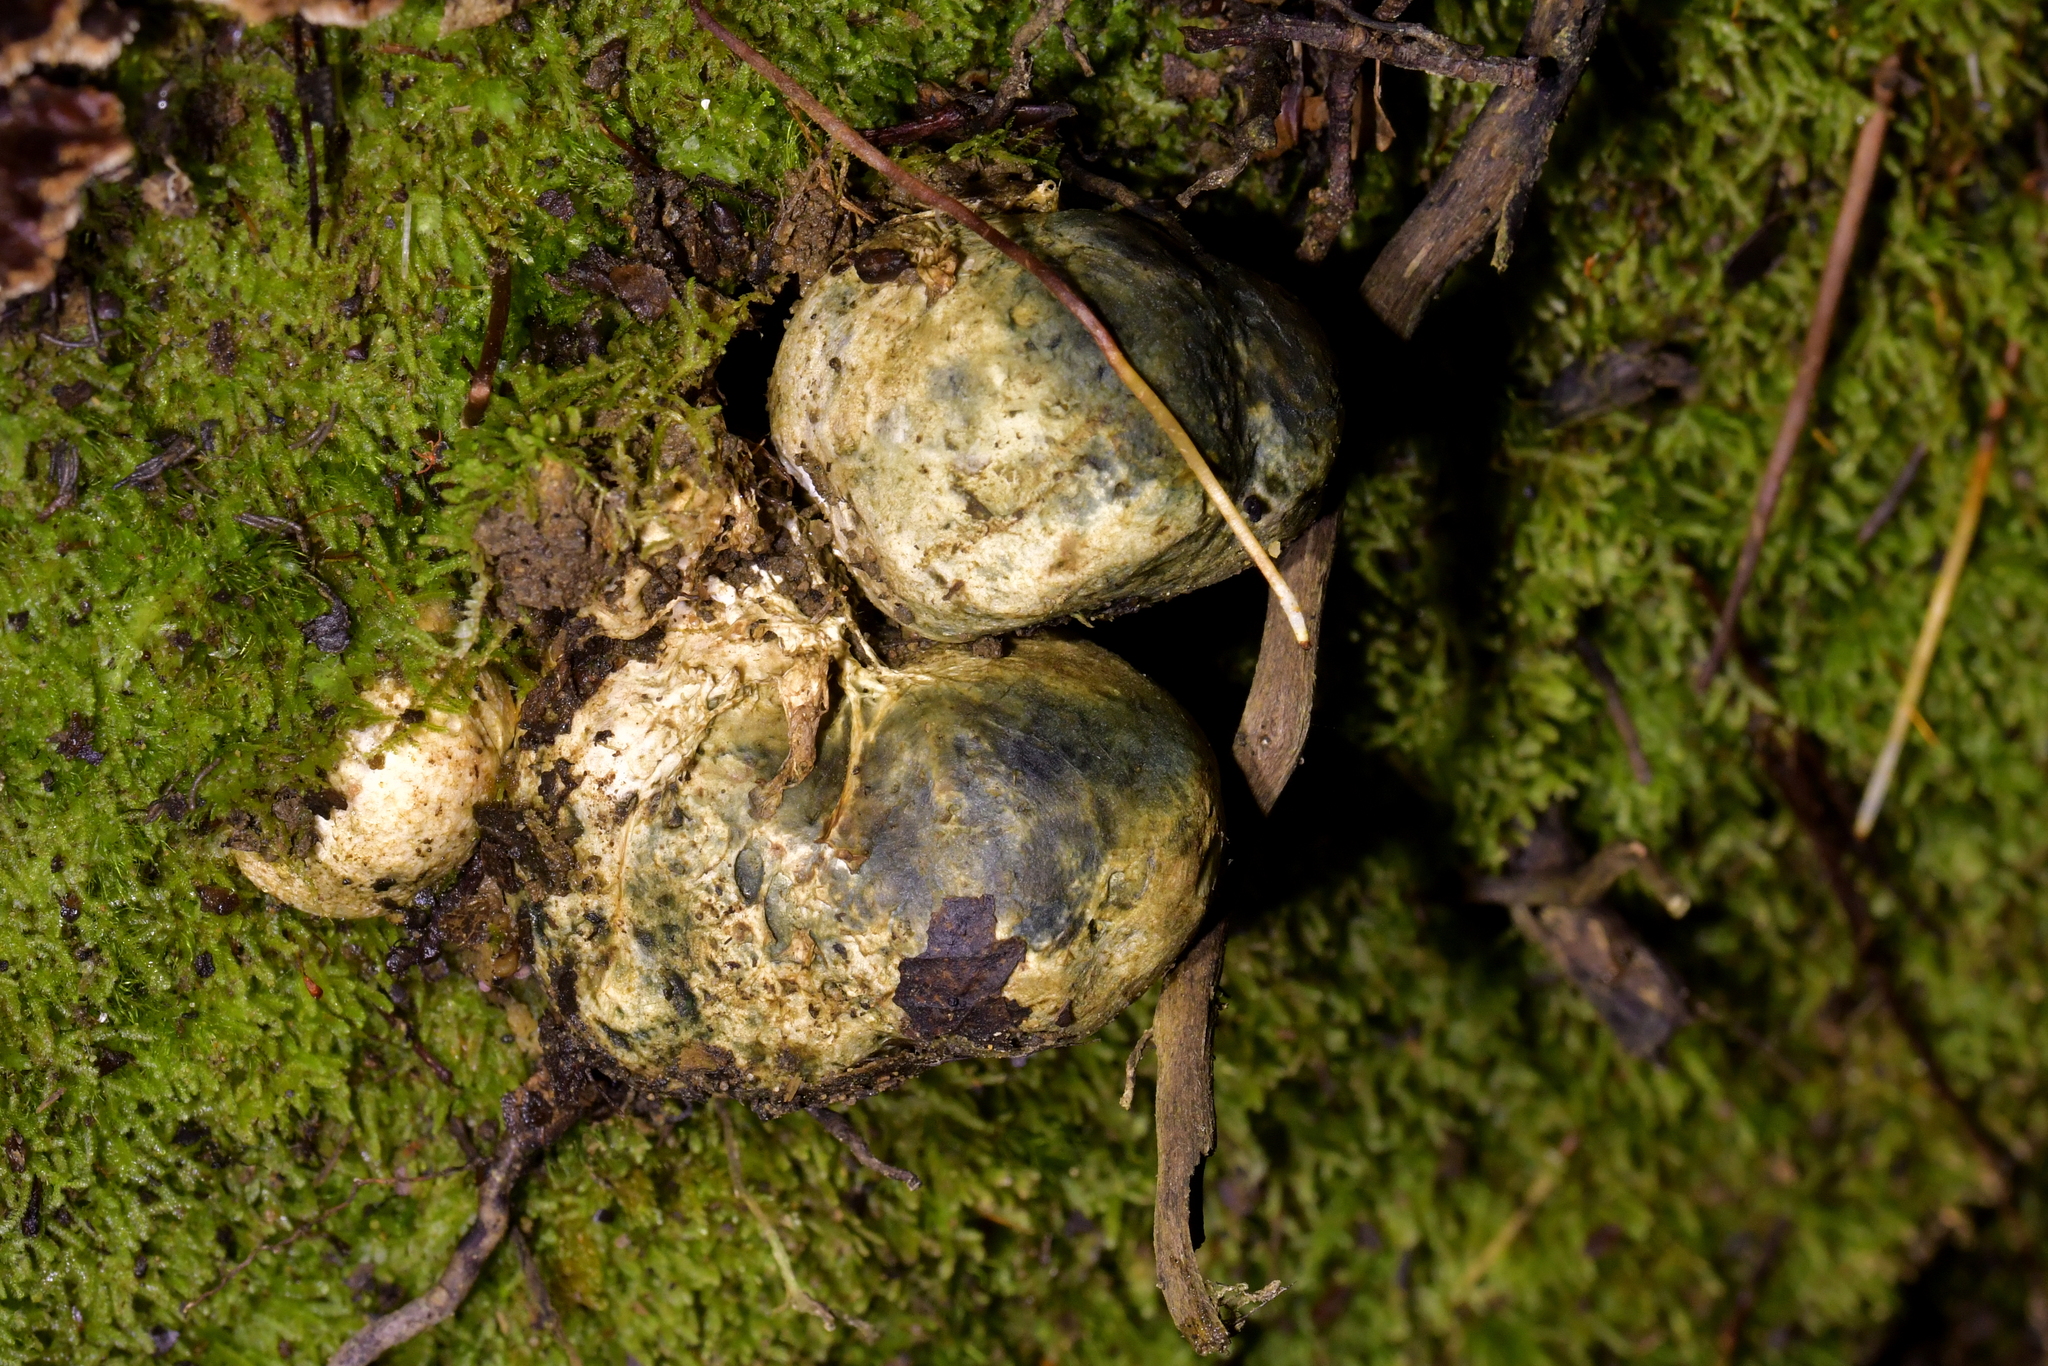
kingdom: Fungi
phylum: Basidiomycota
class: Agaricomycetes
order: Boletales
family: Boletaceae
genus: Leccinum
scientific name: Leccinum pachyderme
